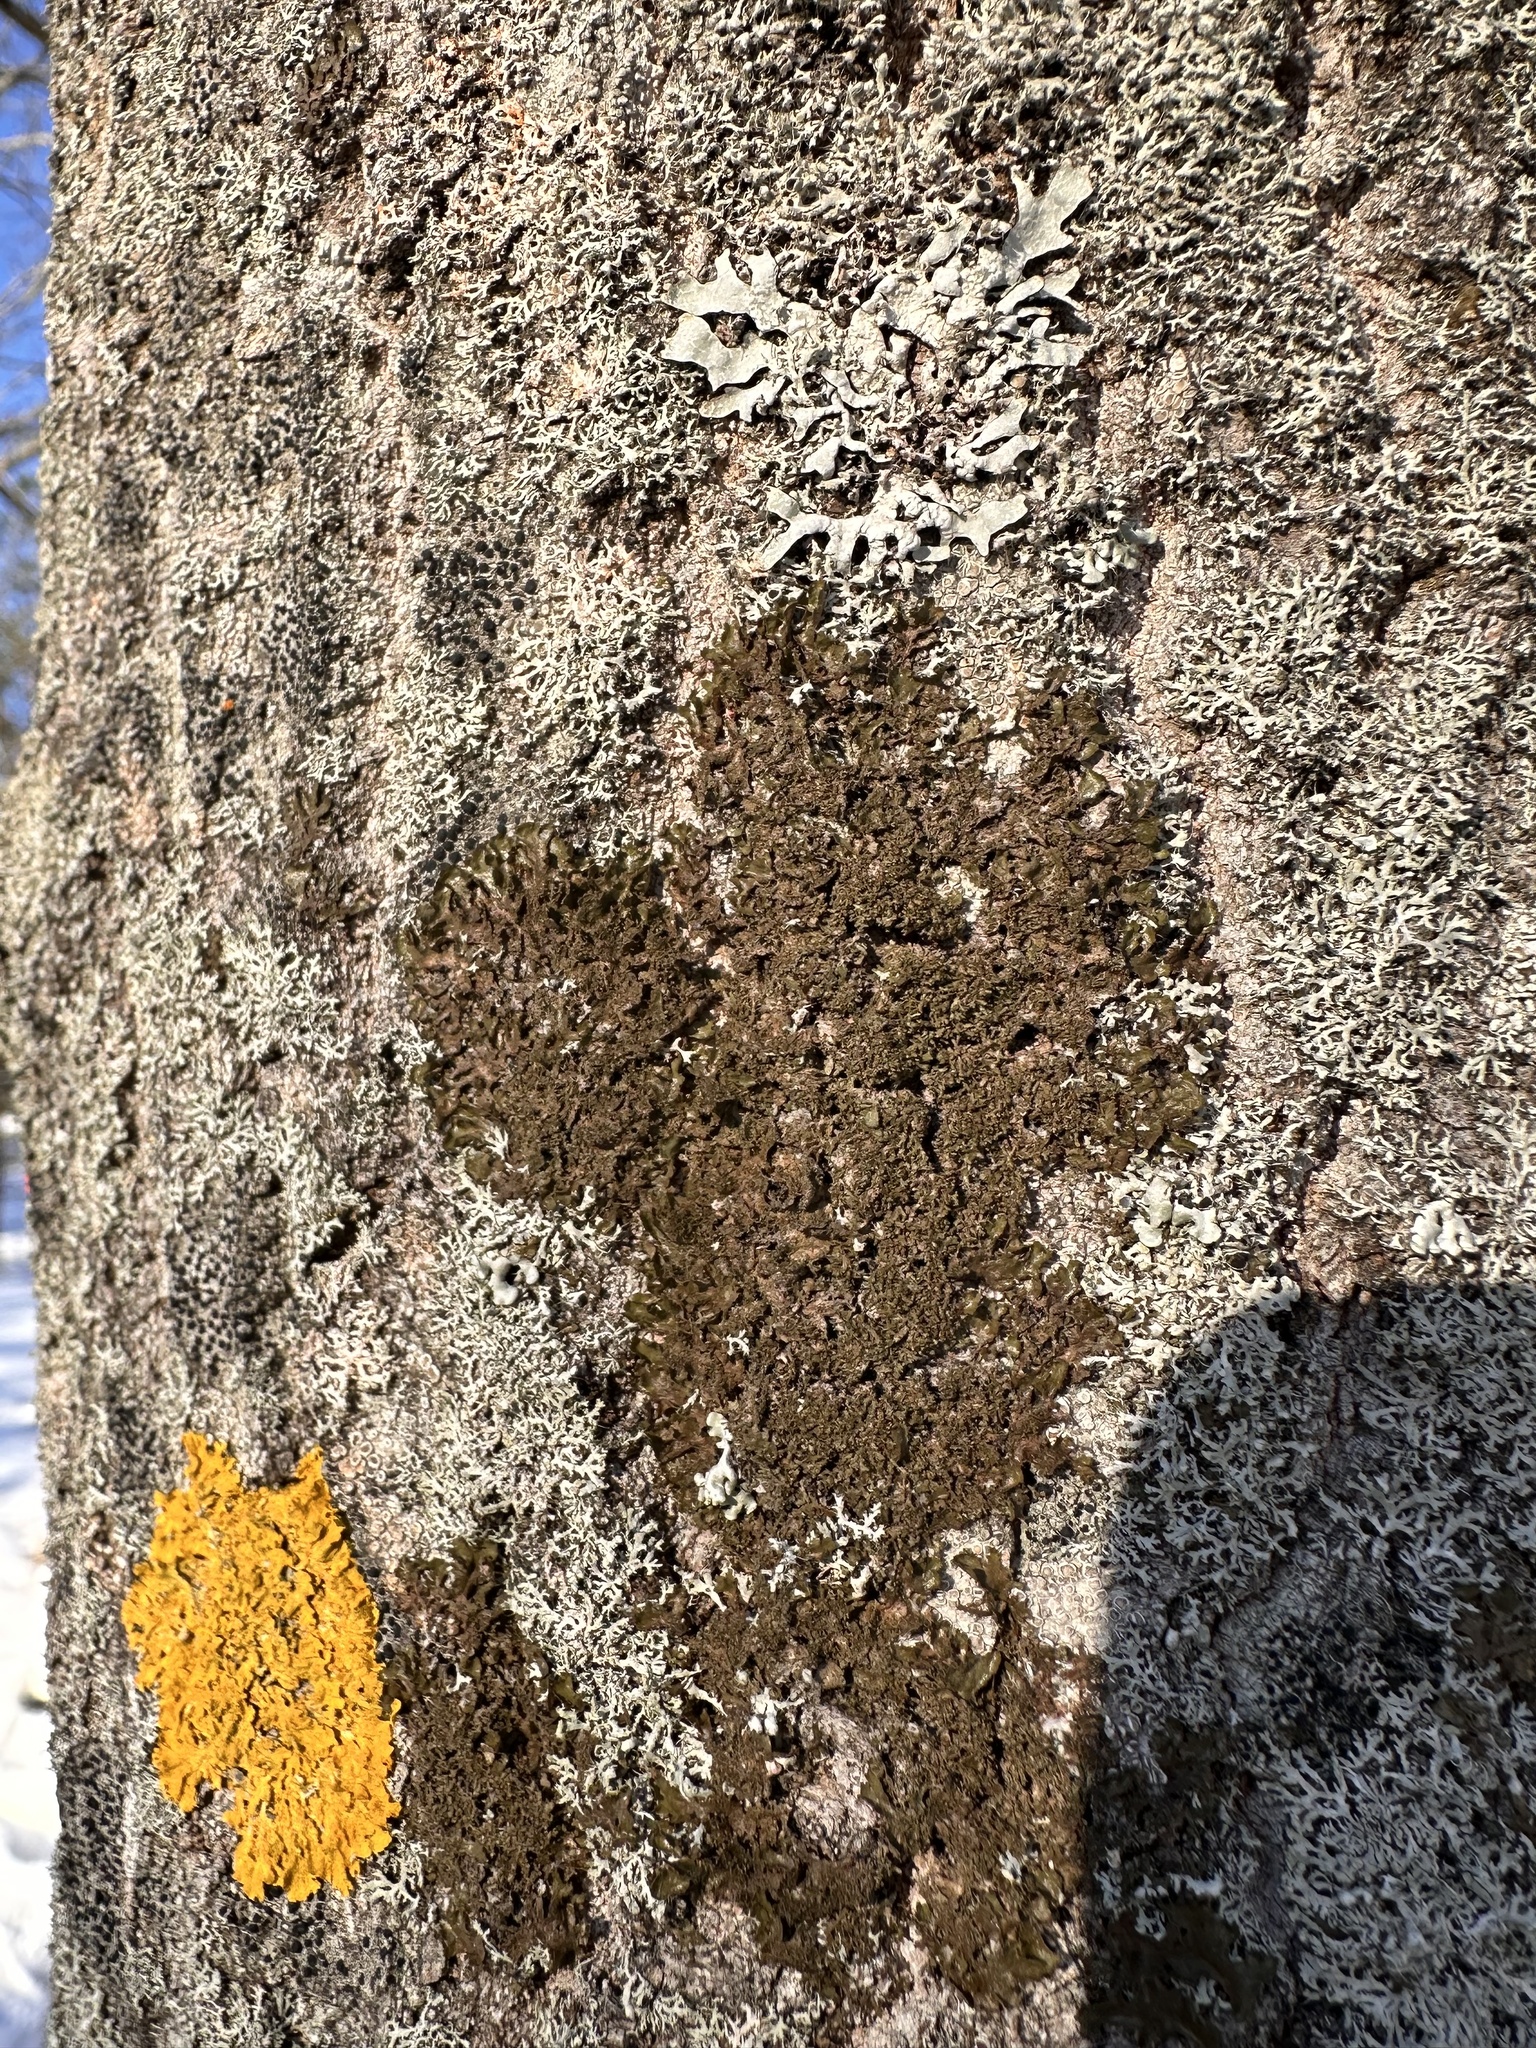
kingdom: Fungi
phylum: Ascomycota
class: Lecanoromycetes
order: Lecanorales
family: Parmeliaceae
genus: Melanohalea
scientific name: Melanohalea exasperatula
